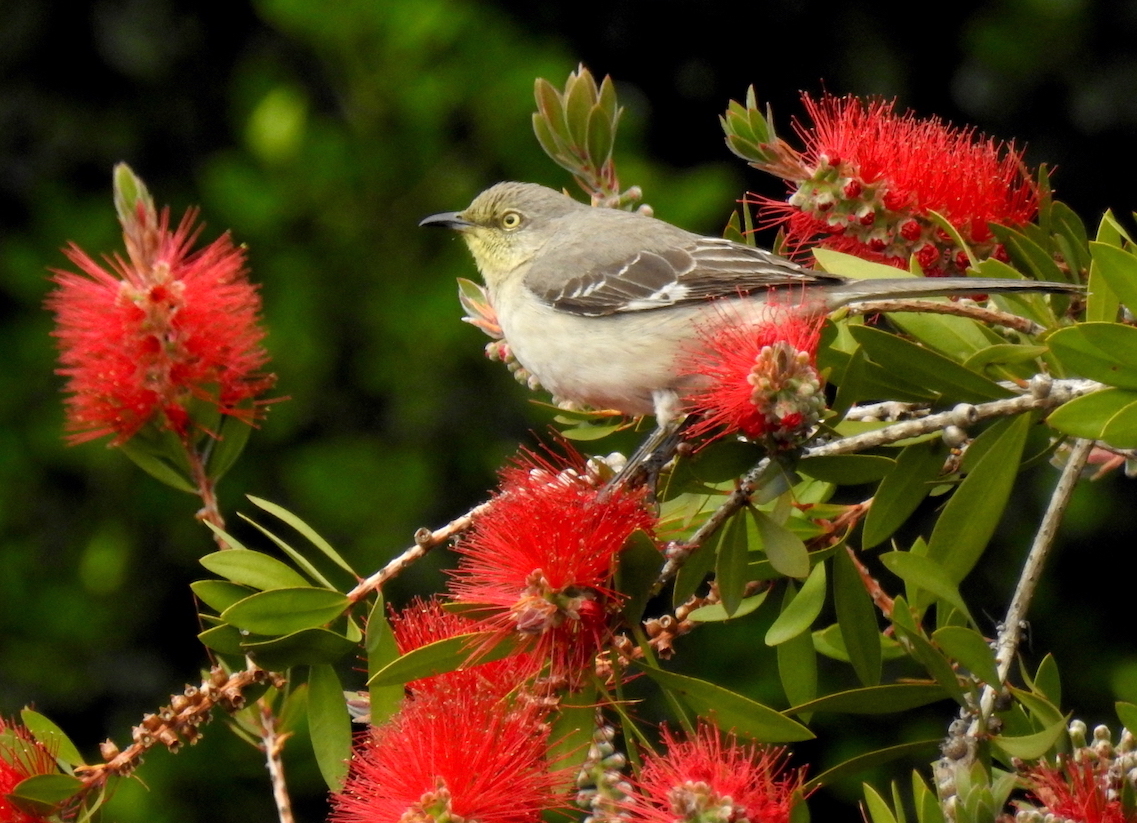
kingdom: Animalia
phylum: Chordata
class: Aves
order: Passeriformes
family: Mimidae
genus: Mimus
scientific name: Mimus polyglottos
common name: Northern mockingbird
